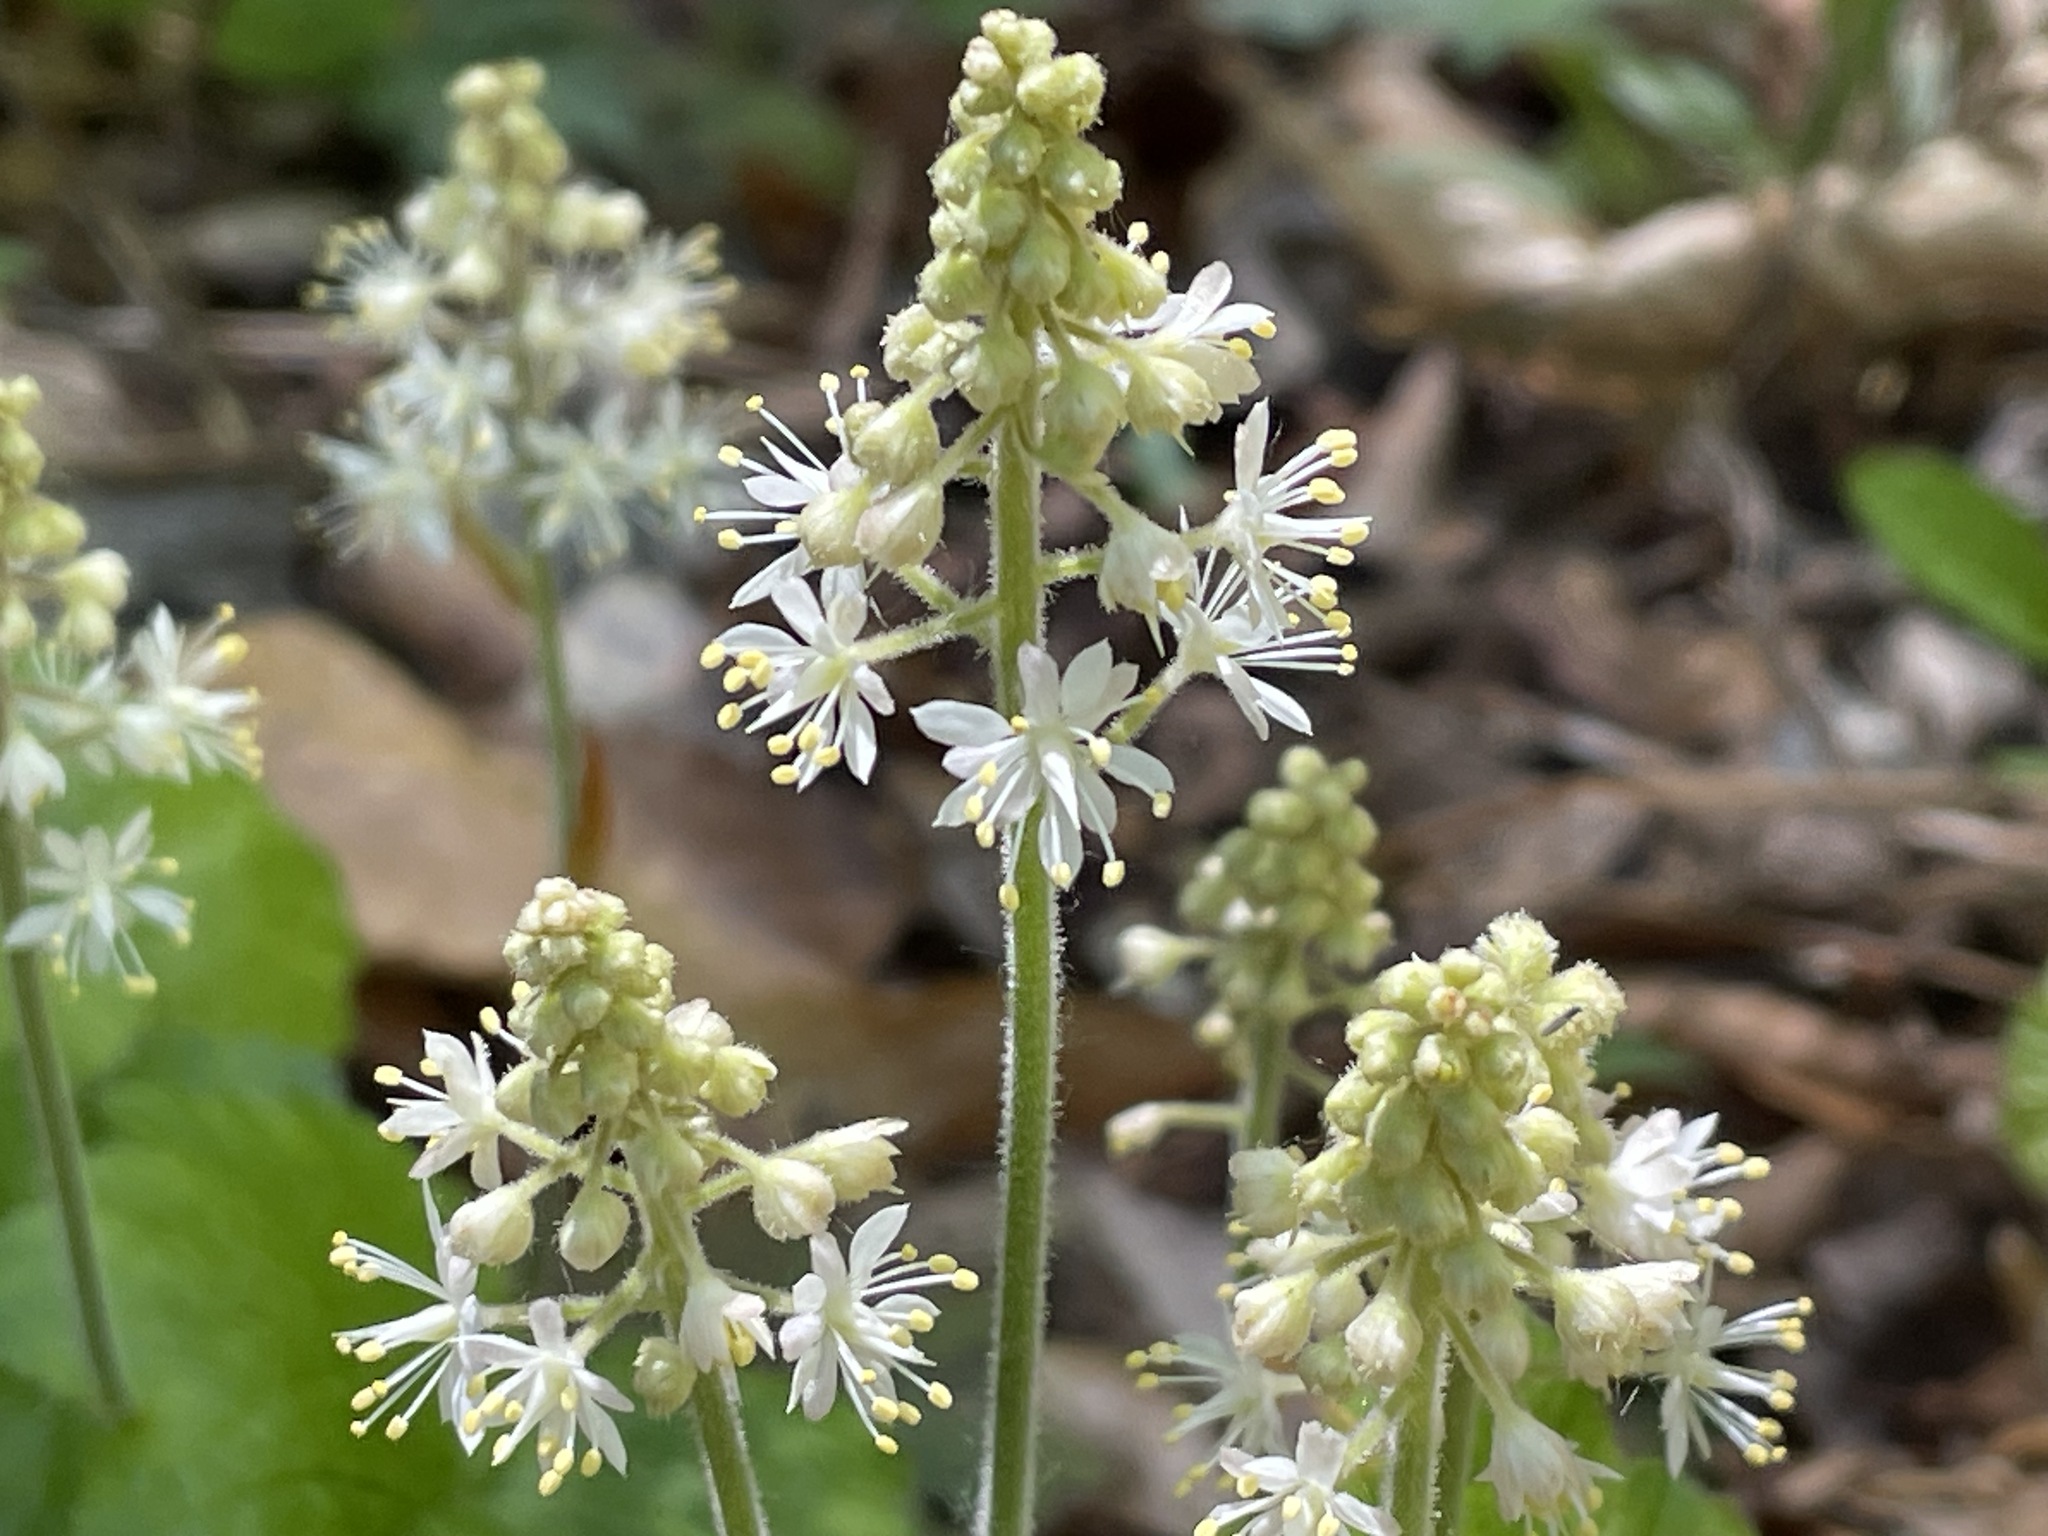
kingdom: Plantae
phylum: Tracheophyta
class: Magnoliopsida
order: Saxifragales
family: Saxifragaceae
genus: Tiarella
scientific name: Tiarella stolonifera
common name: Stoloniferous foamflower
